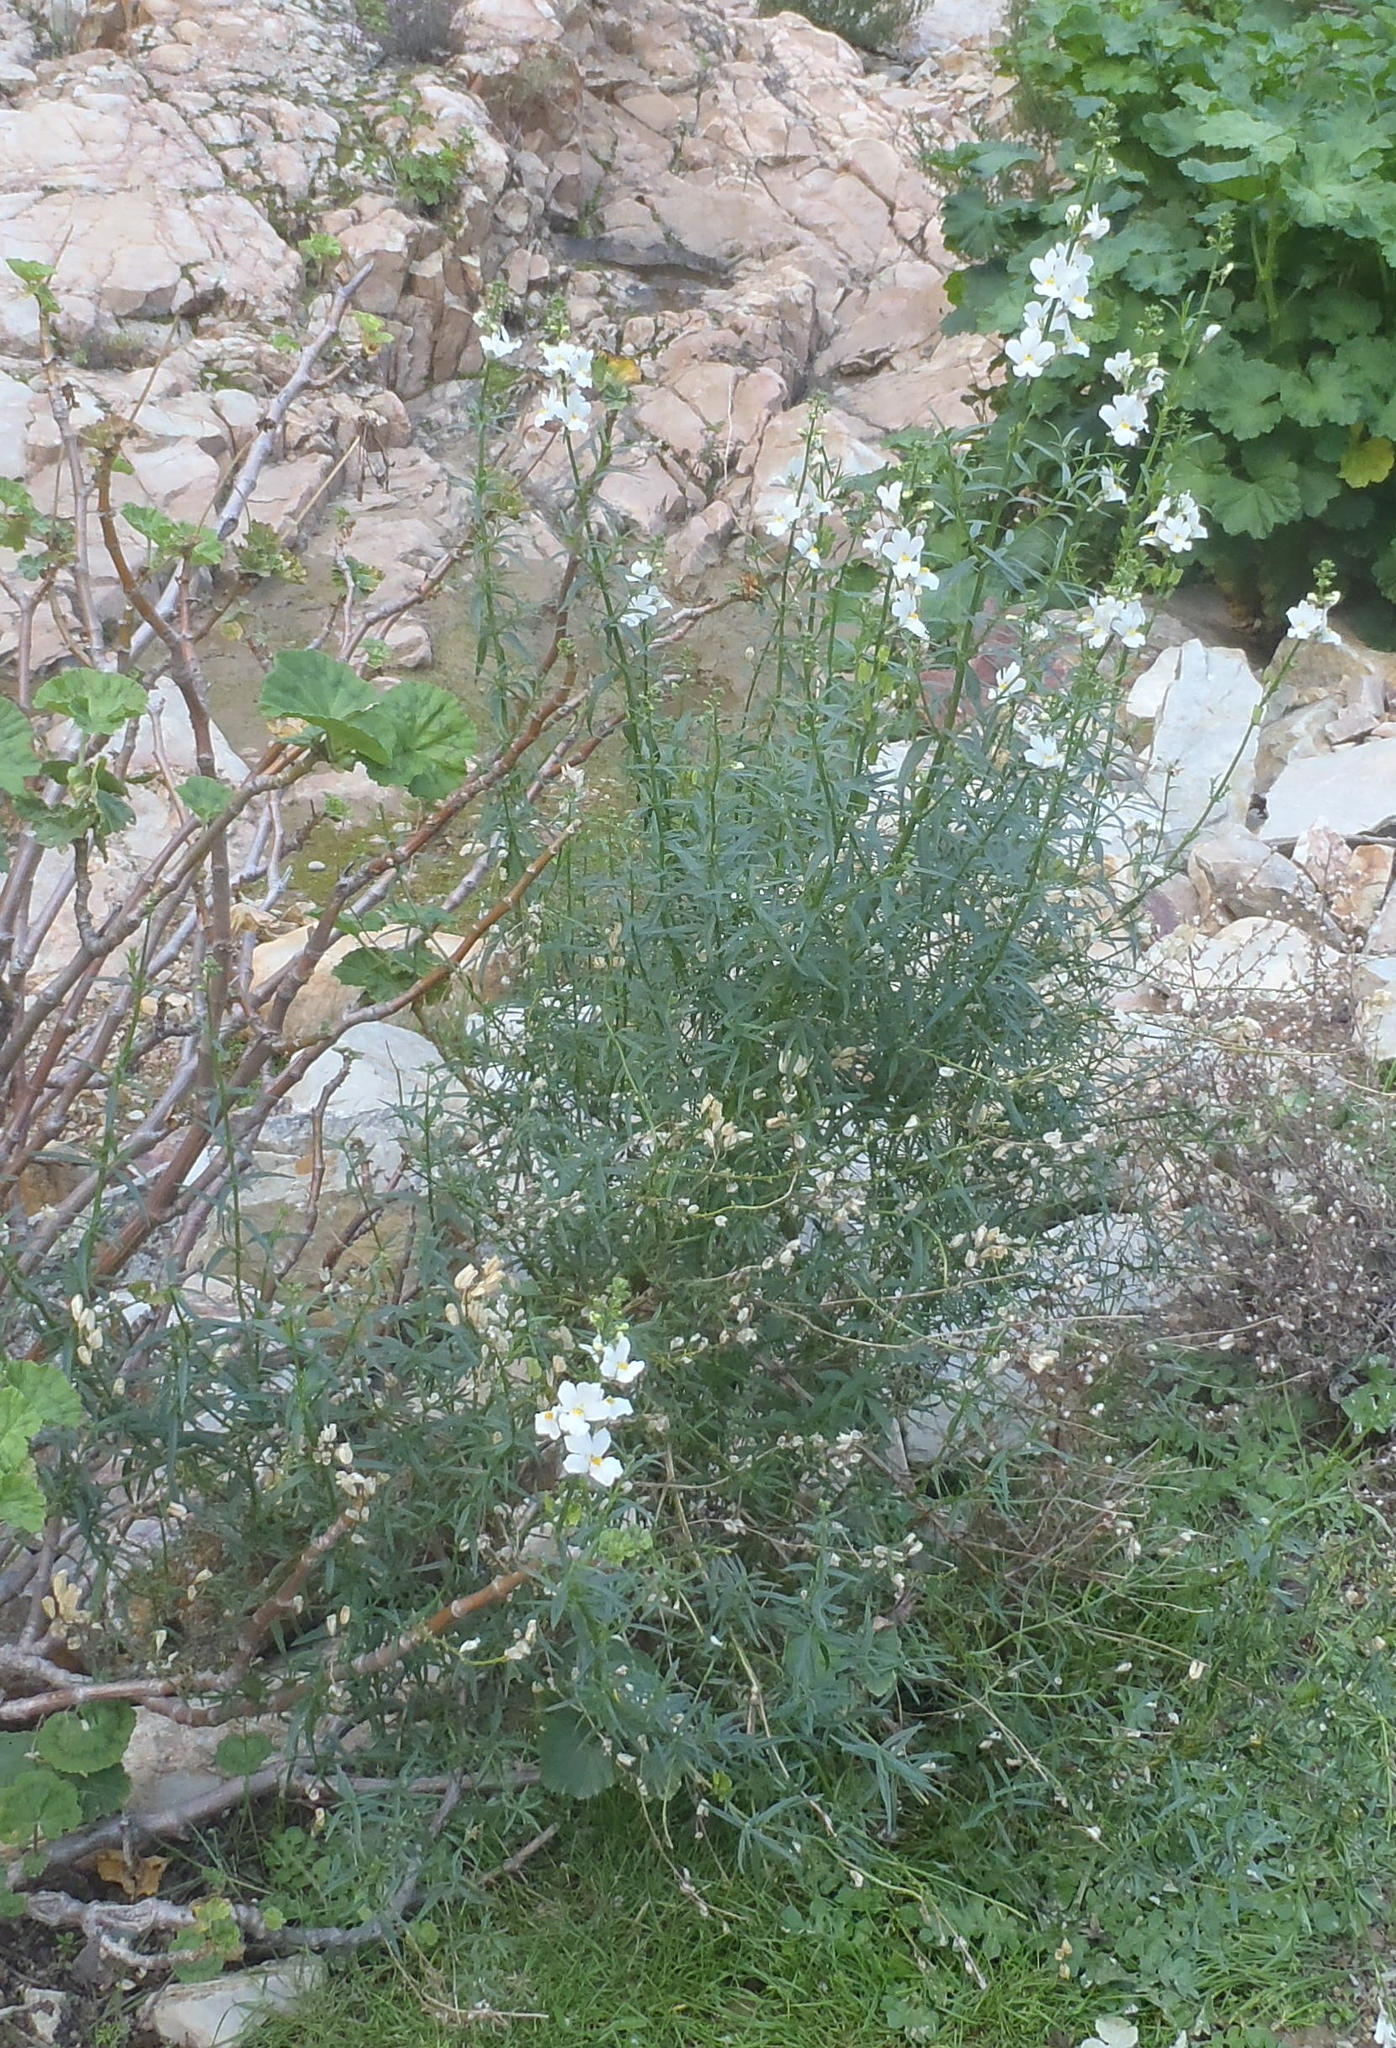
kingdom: Plantae
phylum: Tracheophyta
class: Magnoliopsida
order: Lamiales
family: Scrophulariaceae
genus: Nemesia
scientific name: Nemesia fruticans
